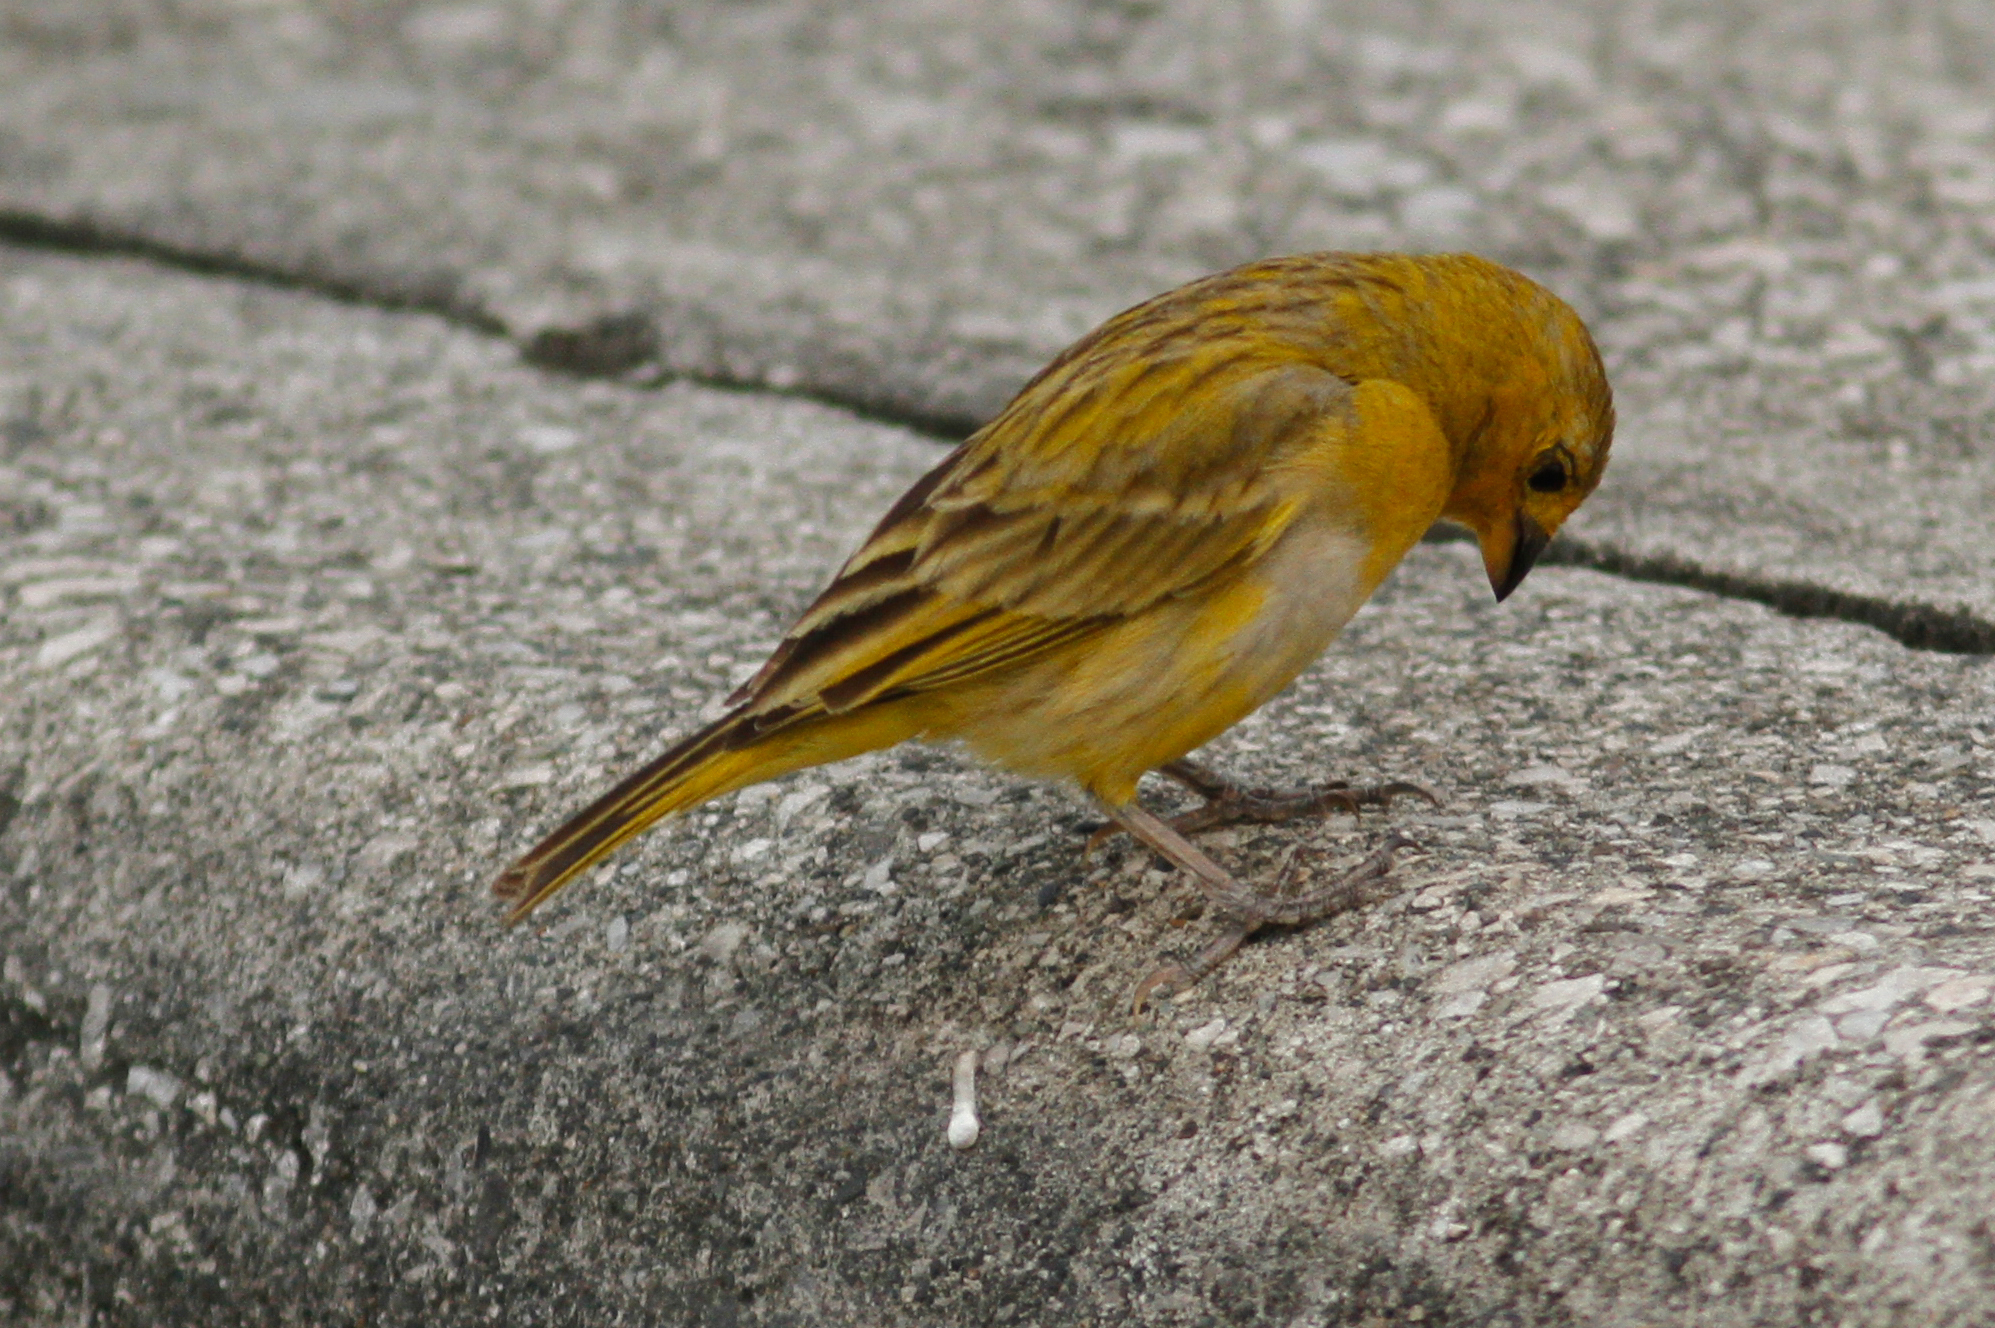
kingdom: Animalia
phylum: Chordata
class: Aves
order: Passeriformes
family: Thraupidae
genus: Sicalis
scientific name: Sicalis flaveola
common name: Saffron finch
